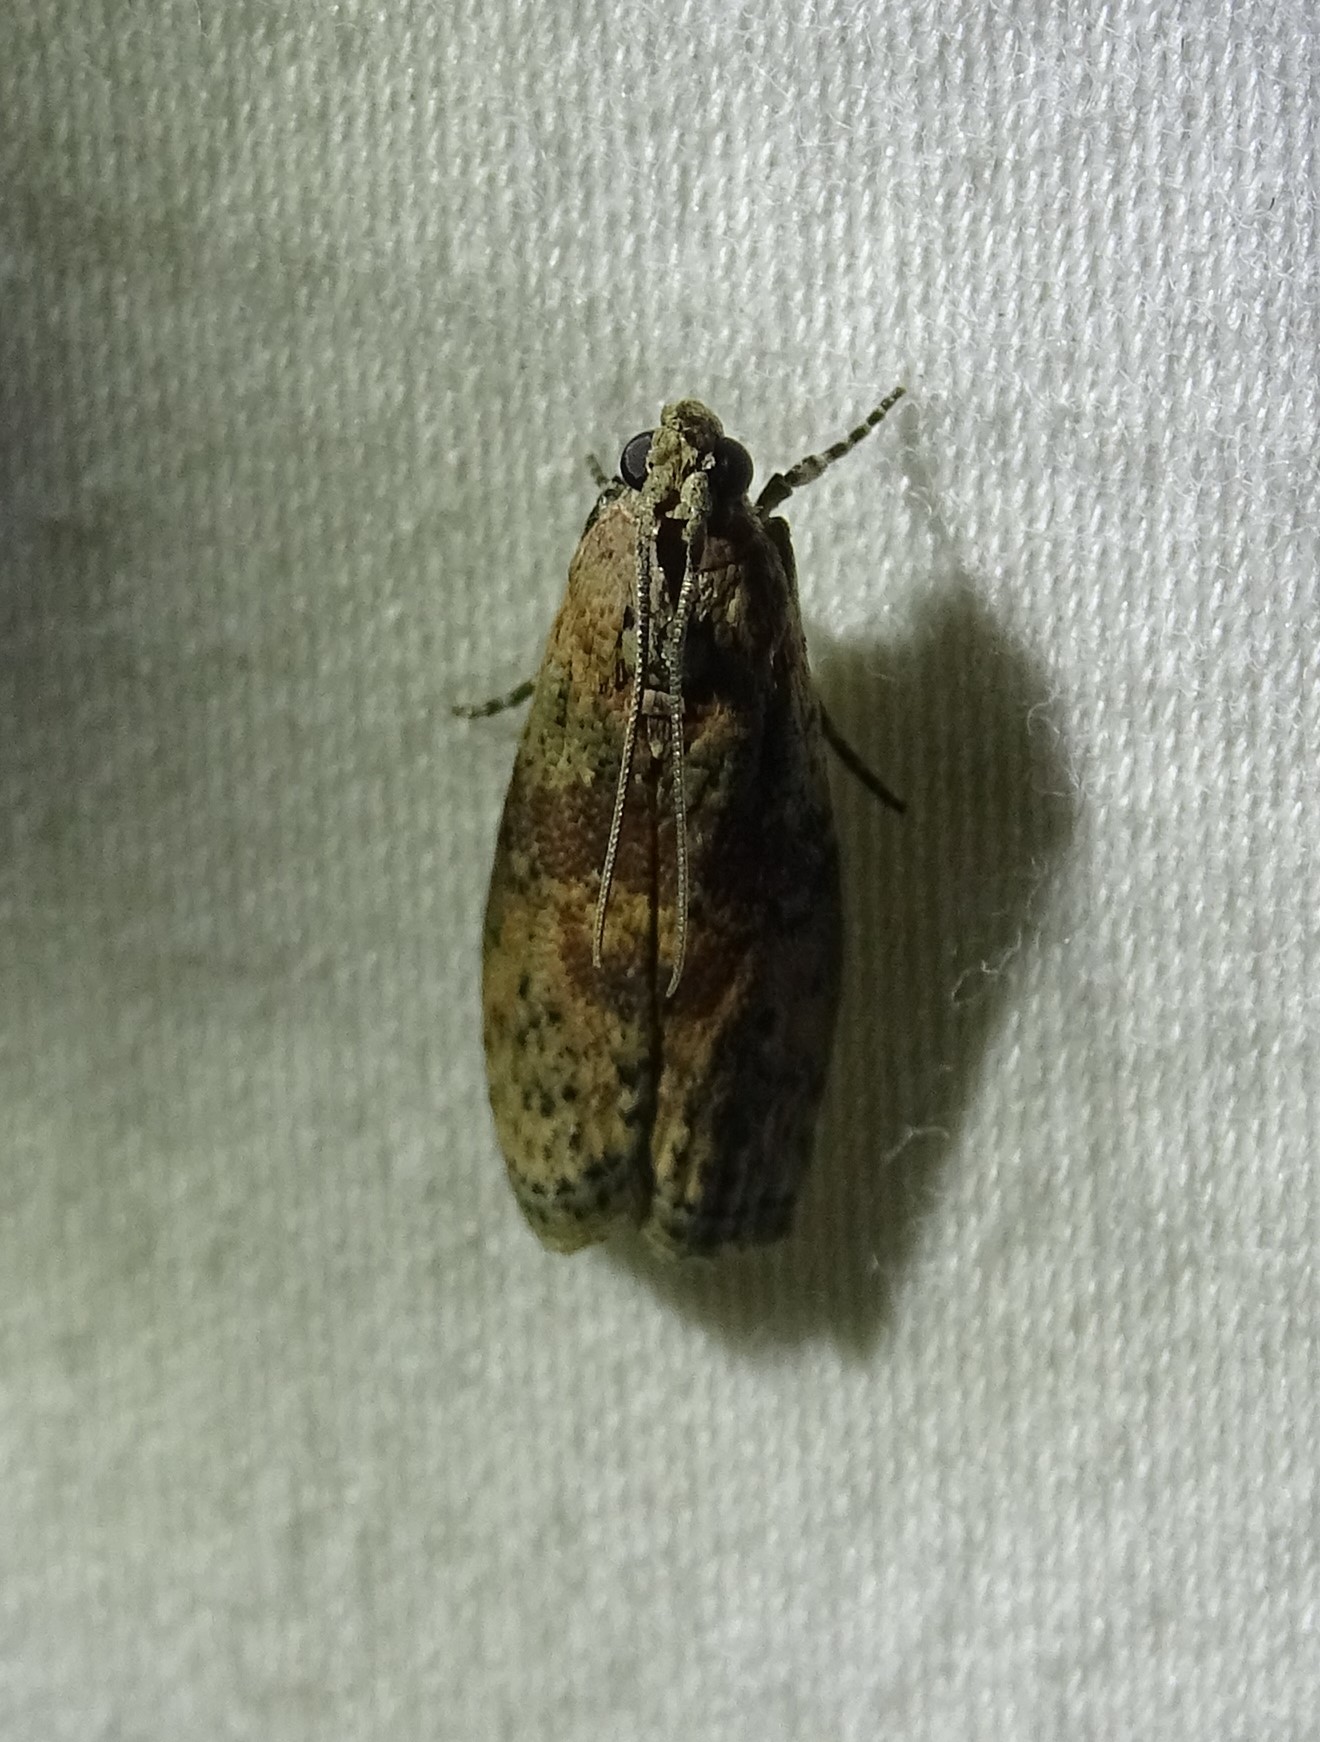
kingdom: Animalia
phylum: Arthropoda
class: Insecta
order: Lepidoptera
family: Pyralidae
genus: Sciota
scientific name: Sciota celtidella
